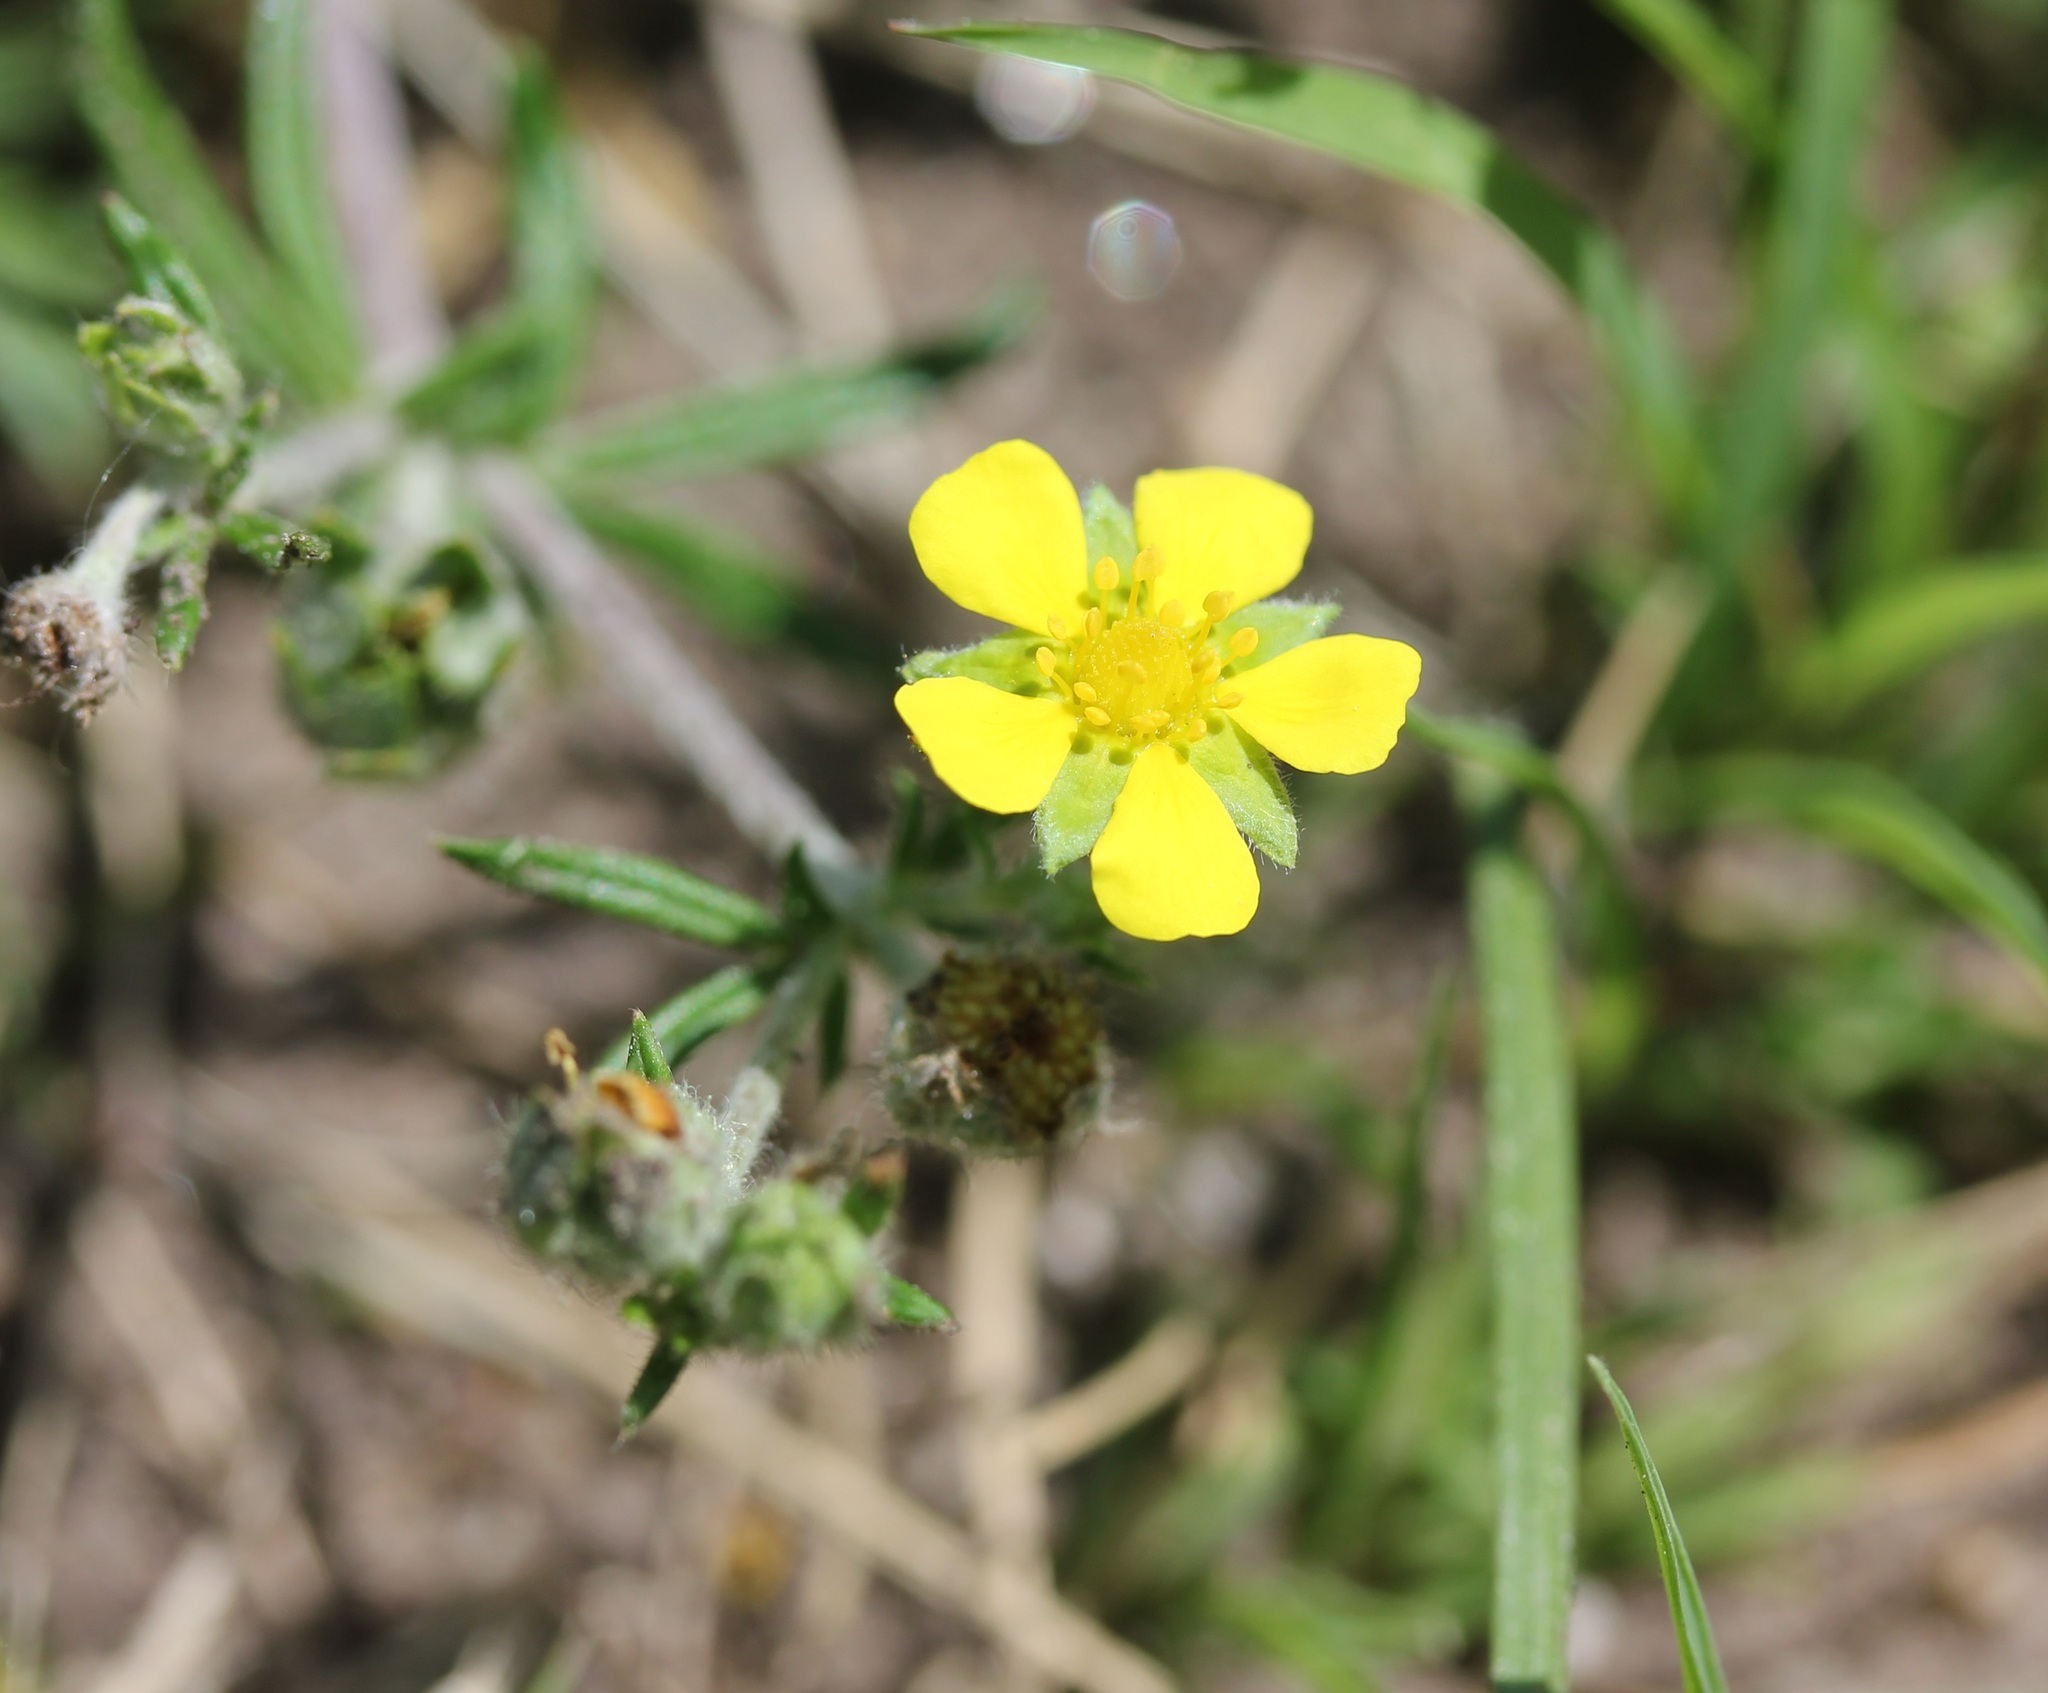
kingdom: Plantae
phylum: Tracheophyta
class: Magnoliopsida
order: Rosales
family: Rosaceae
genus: Potentilla
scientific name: Potentilla argentea
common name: Hoary cinquefoil
